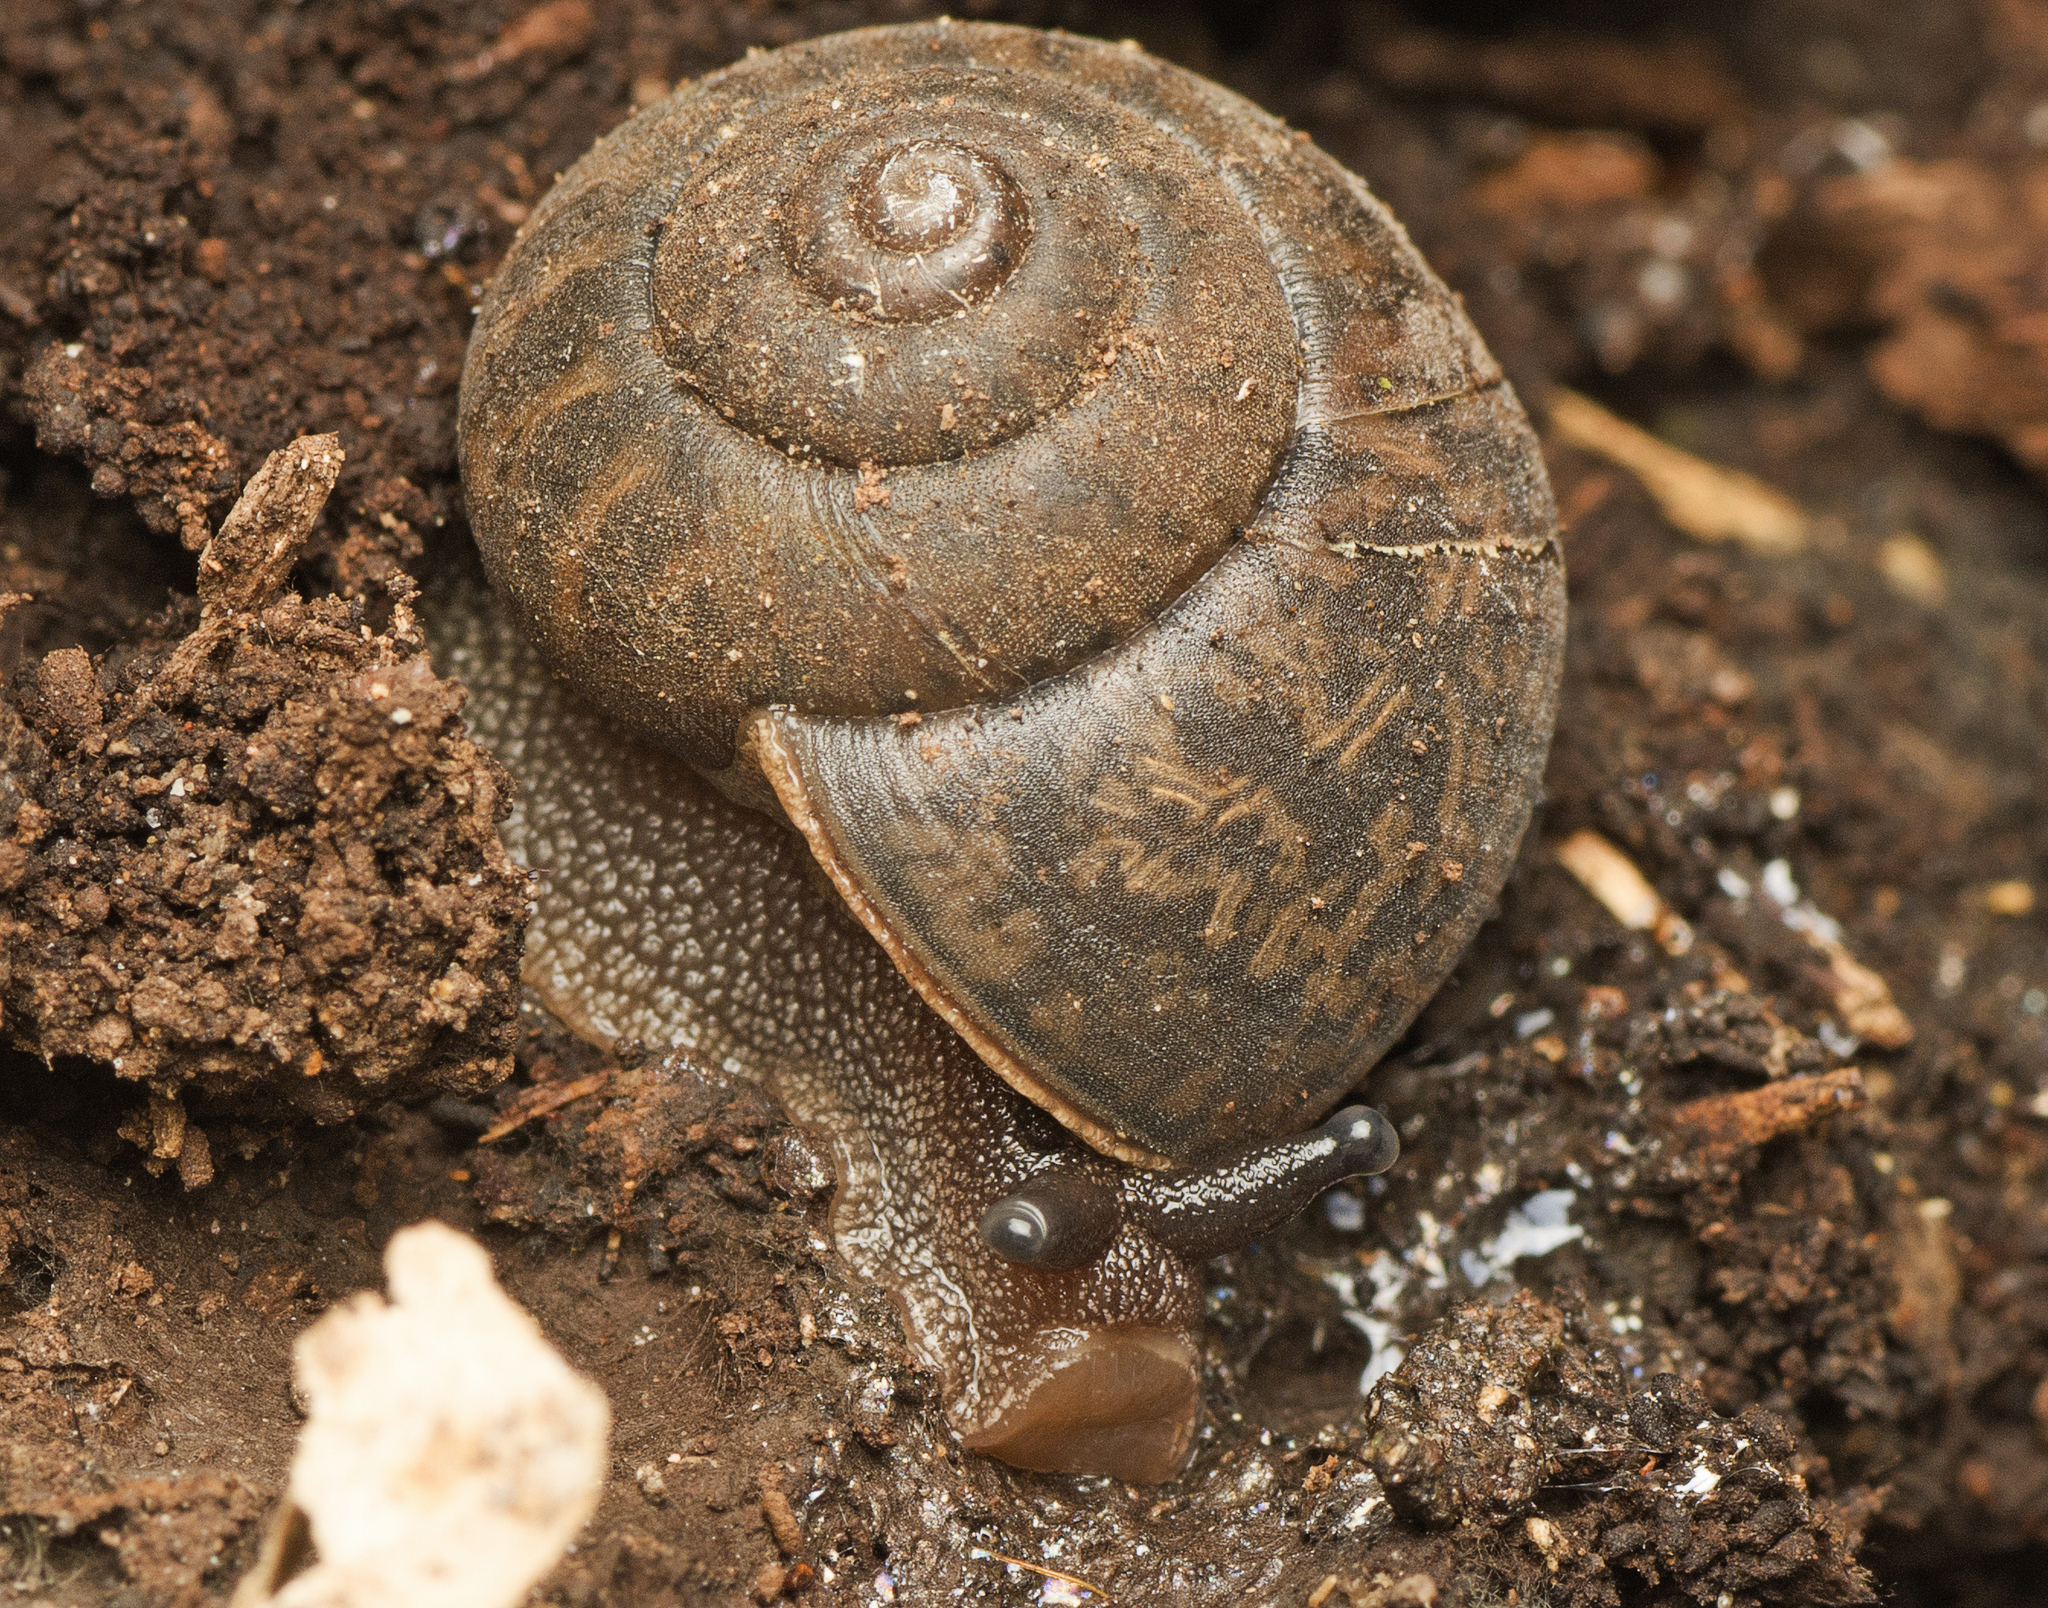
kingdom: Animalia
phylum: Mollusca
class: Gastropoda
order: Stylommatophora
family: Camaenidae
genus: Neveritis
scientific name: Neveritis misella
